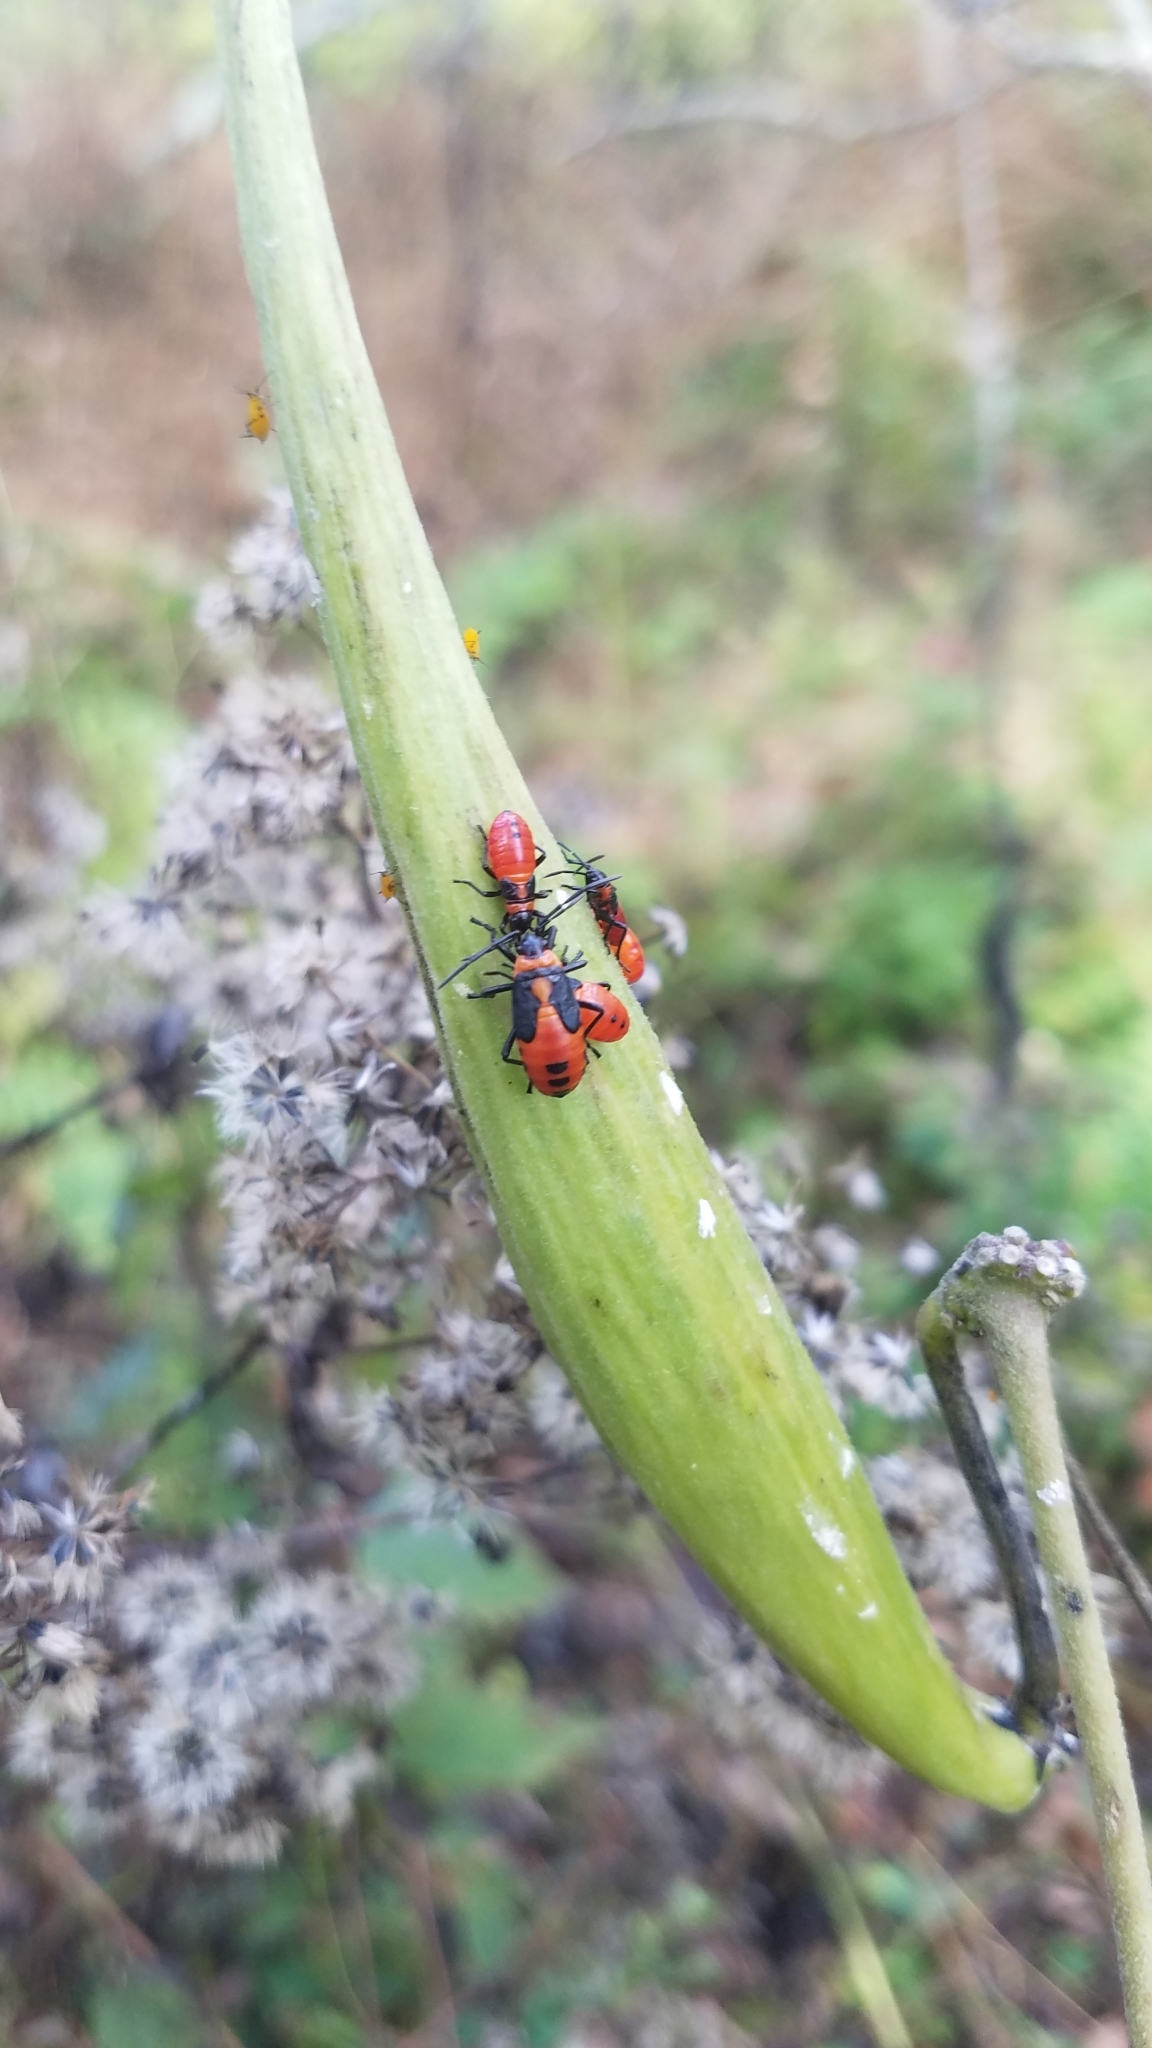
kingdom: Animalia
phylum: Arthropoda
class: Insecta
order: Hemiptera
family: Lygaeidae
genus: Oncopeltus
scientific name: Oncopeltus fasciatus
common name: Large milkweed bug
